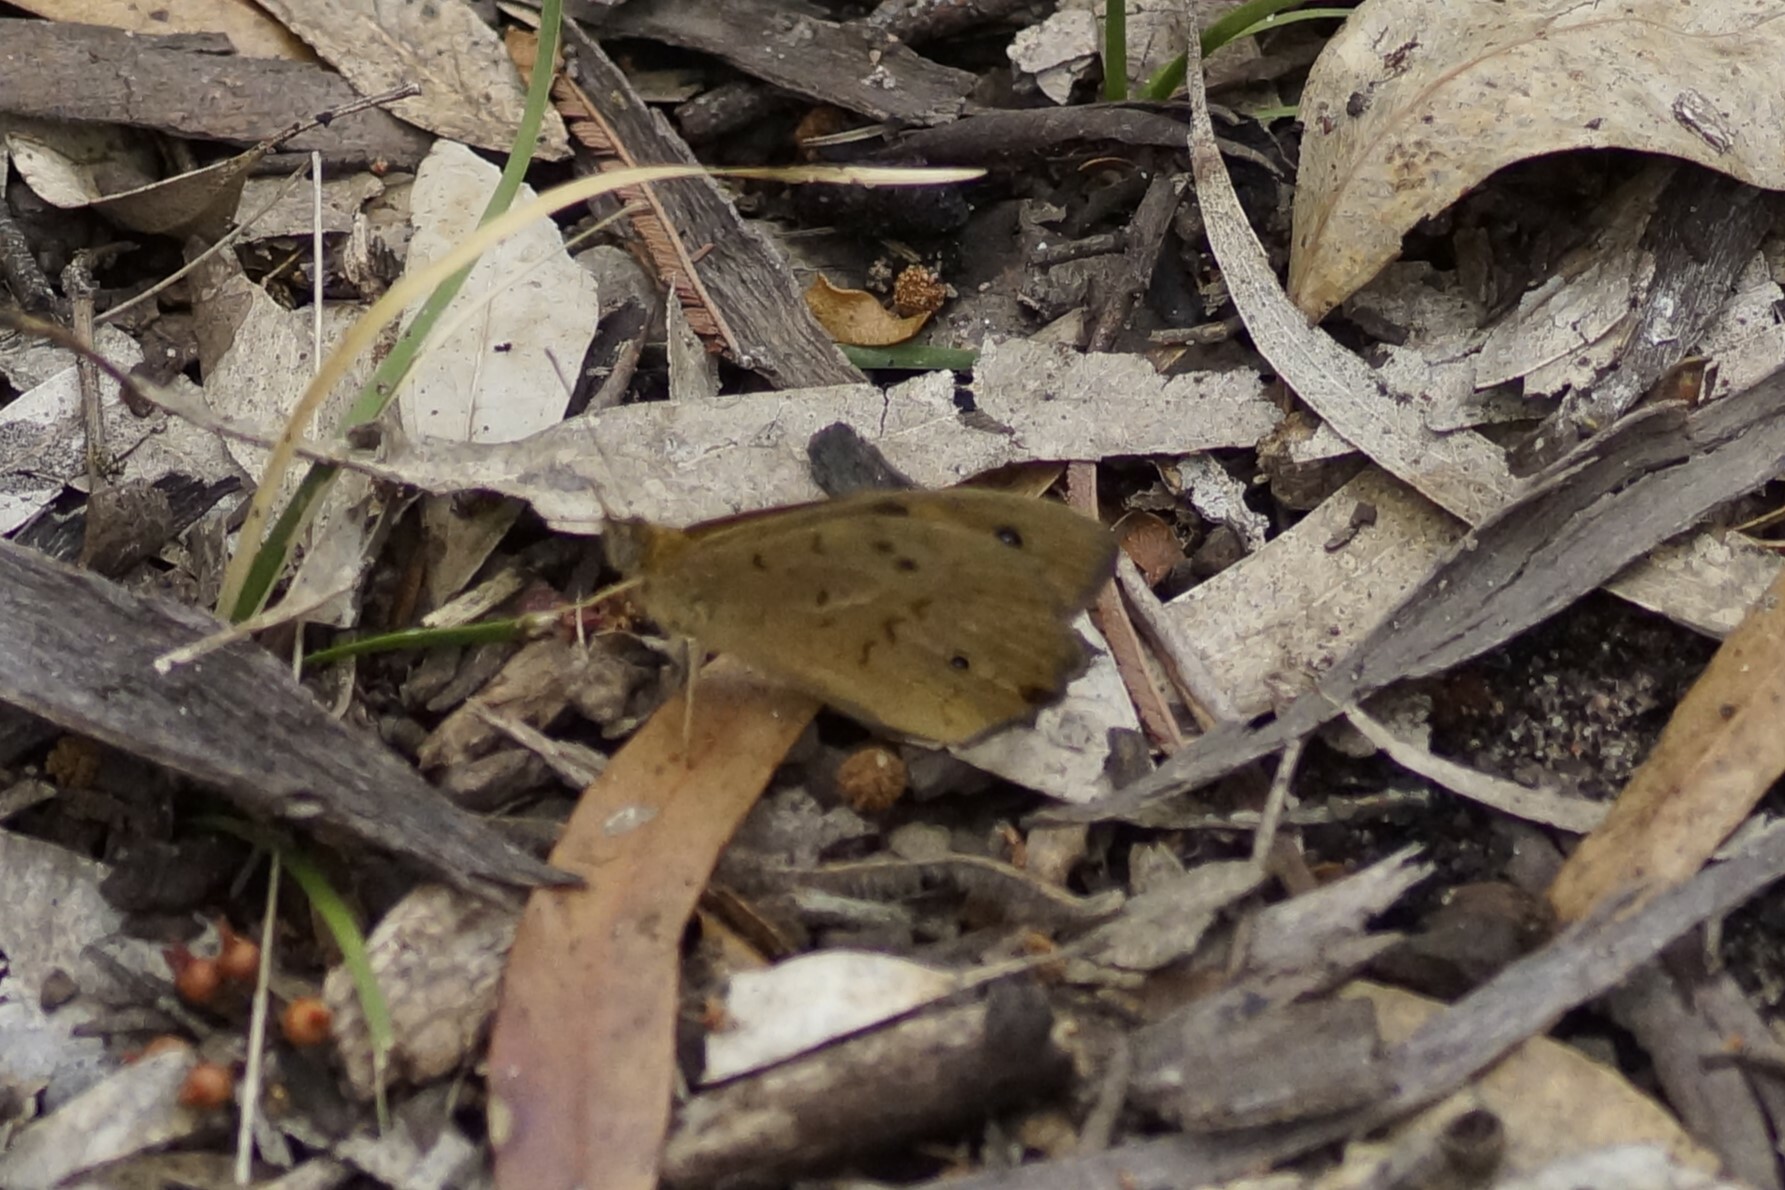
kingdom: Animalia
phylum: Arthropoda
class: Insecta
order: Lepidoptera
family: Nymphalidae
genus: Heteronympha
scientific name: Heteronympha merope
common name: Common brown
